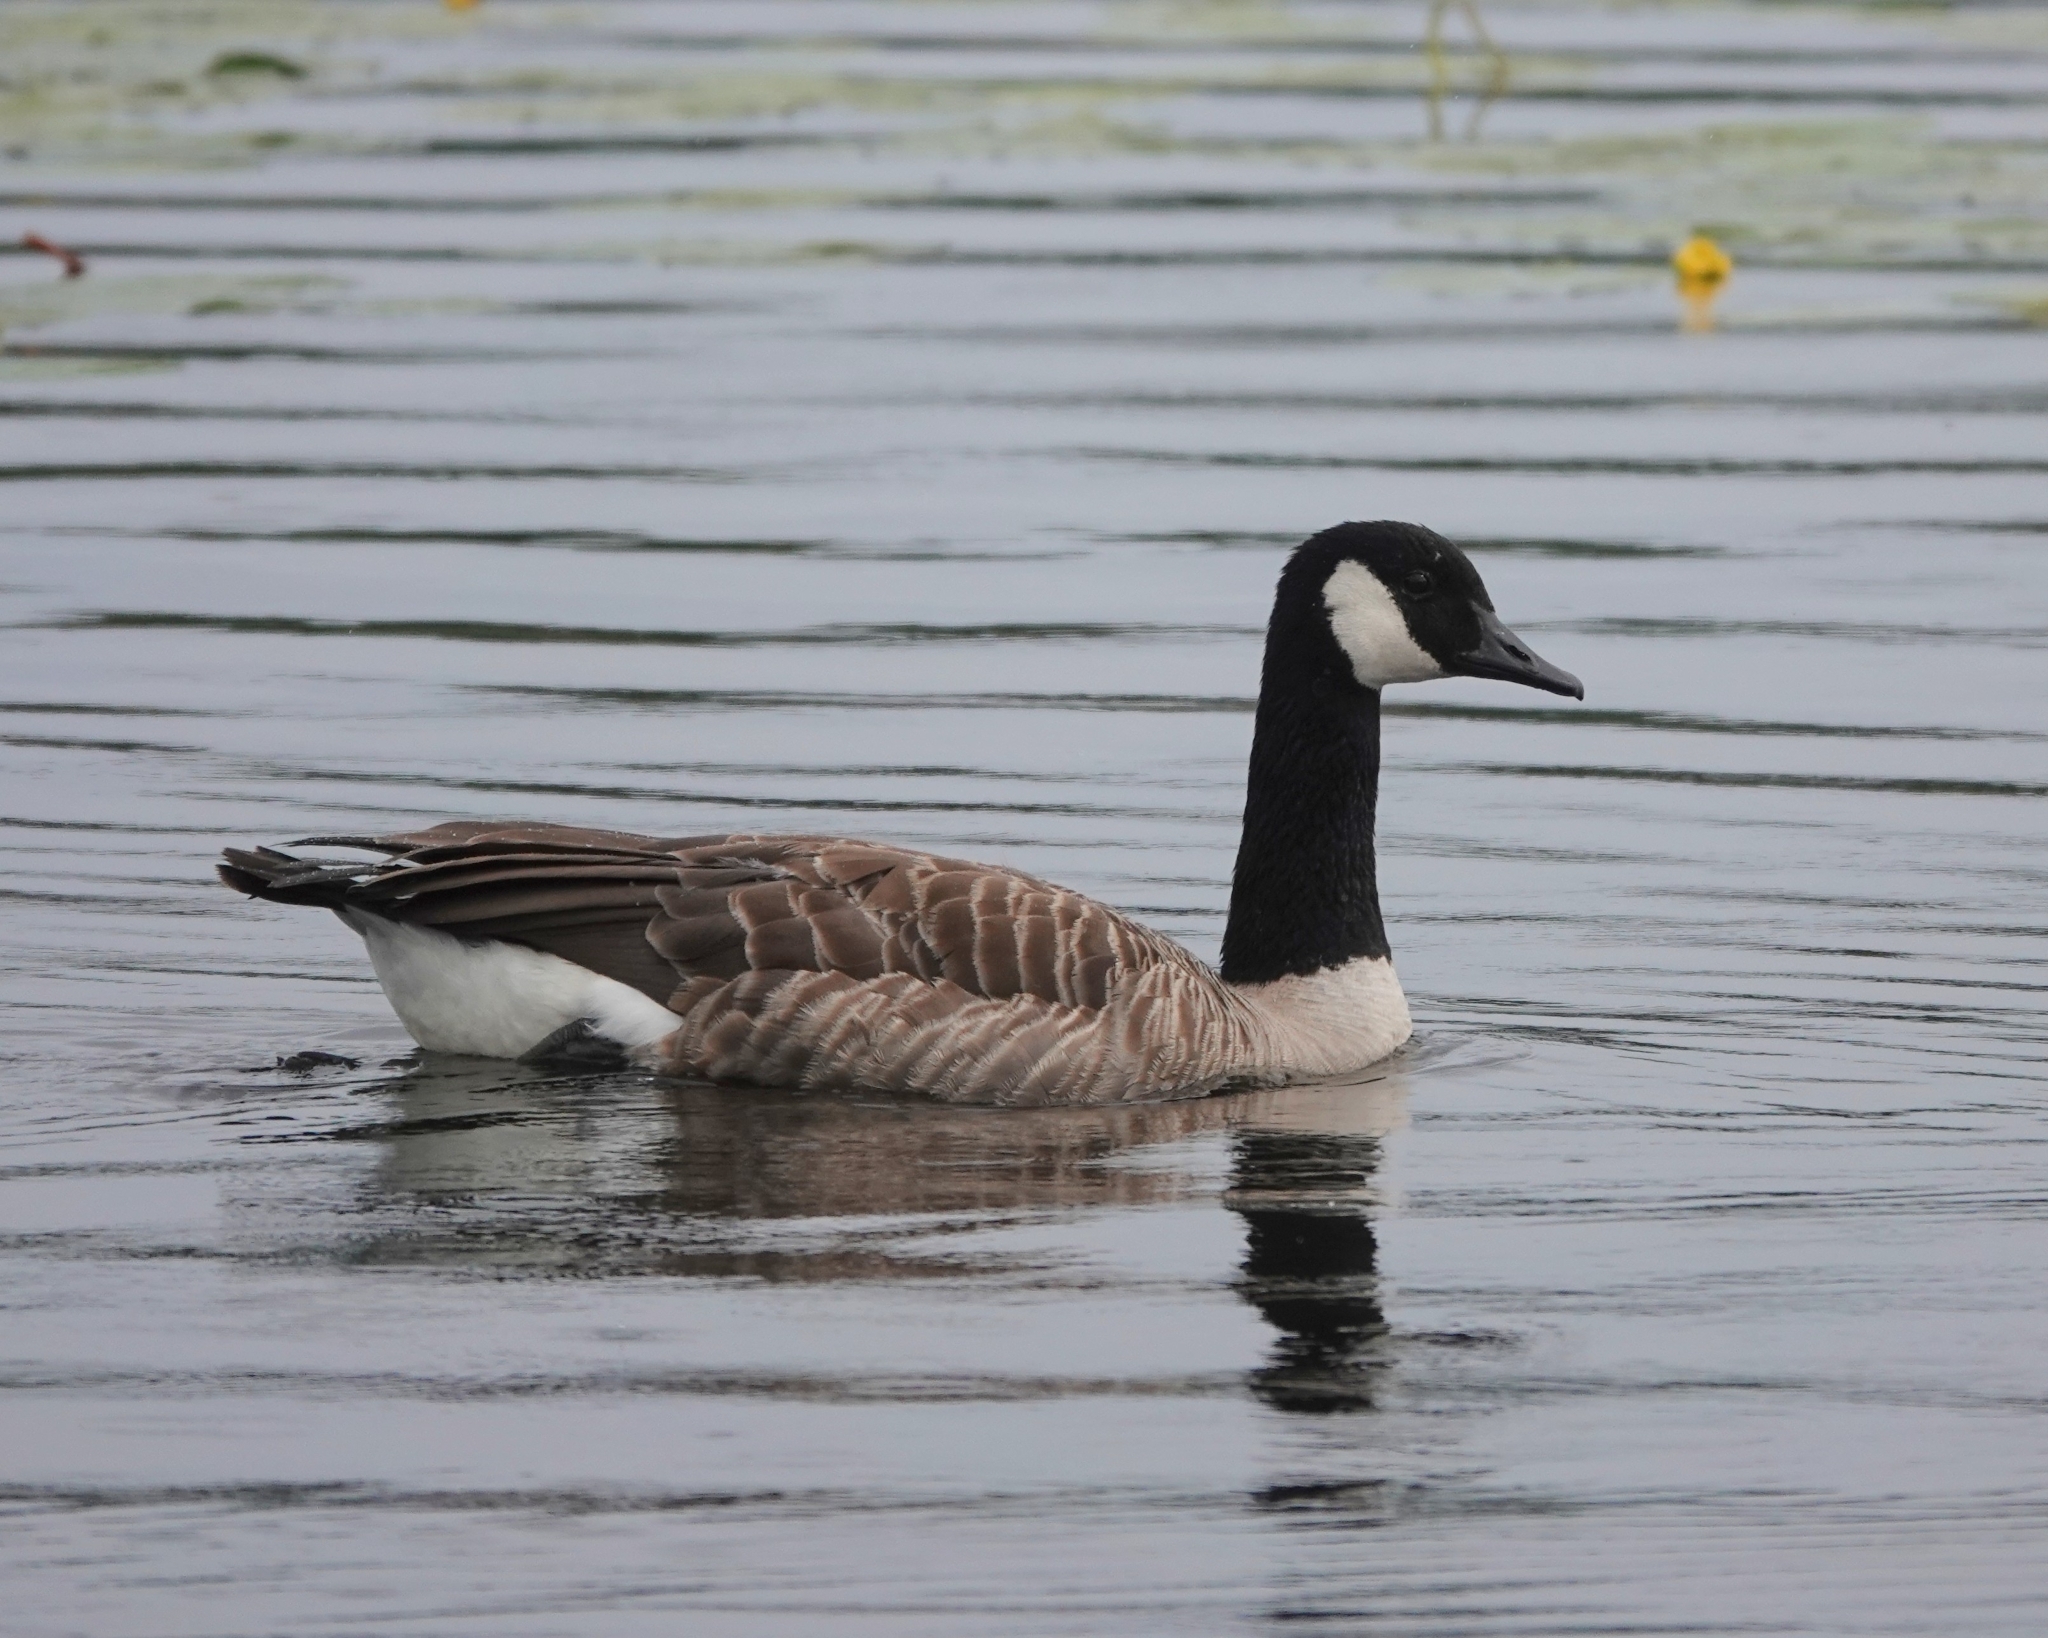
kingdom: Animalia
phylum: Chordata
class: Aves
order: Anseriformes
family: Anatidae
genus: Branta
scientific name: Branta canadensis
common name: Canada goose
